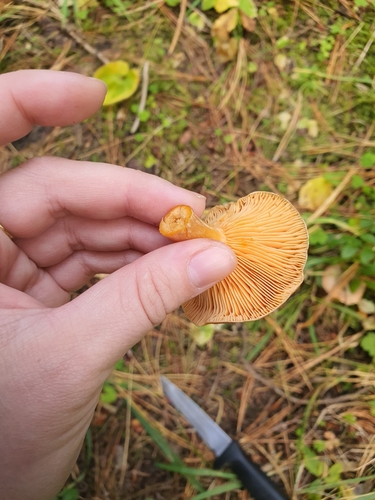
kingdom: Fungi
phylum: Basidiomycota
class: Agaricomycetes
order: Russulales
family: Russulaceae
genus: Lactarius
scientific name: Lactarius deliciosus
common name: Saffron milk-cap
